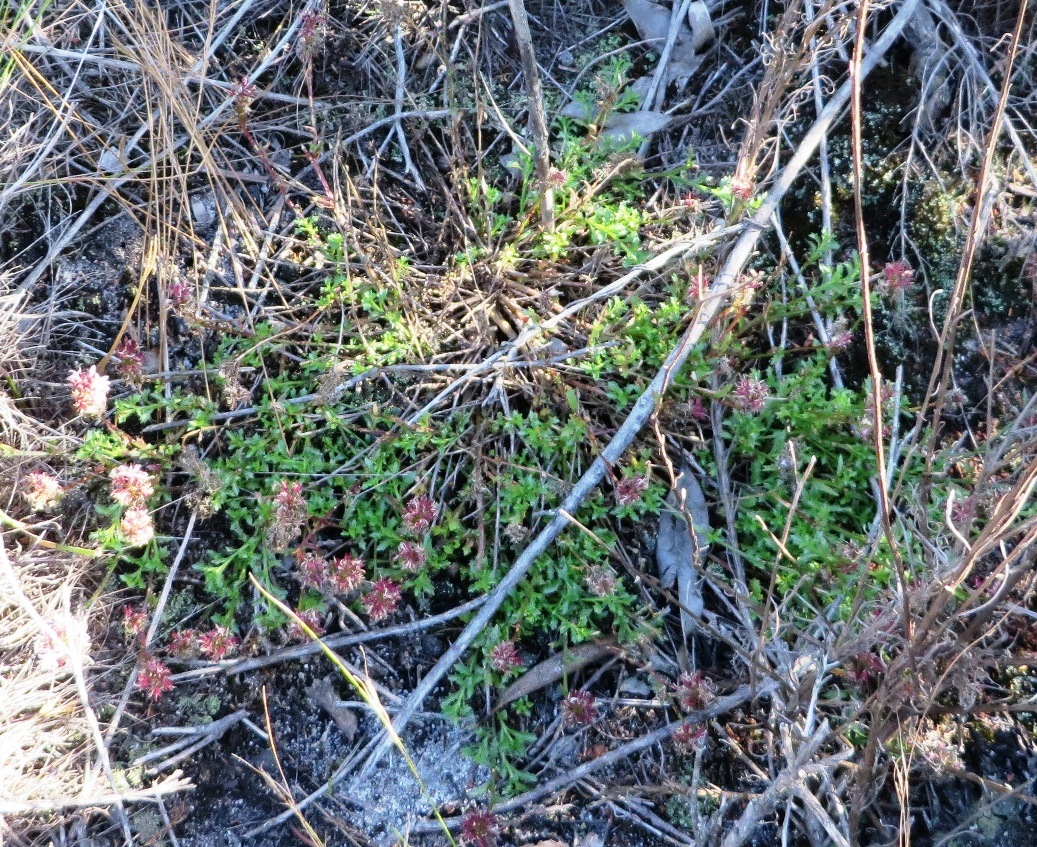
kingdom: Plantae
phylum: Tracheophyta
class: Magnoliopsida
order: Asterales
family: Campanulaceae
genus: Lobelia
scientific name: Lobelia jasionoides
